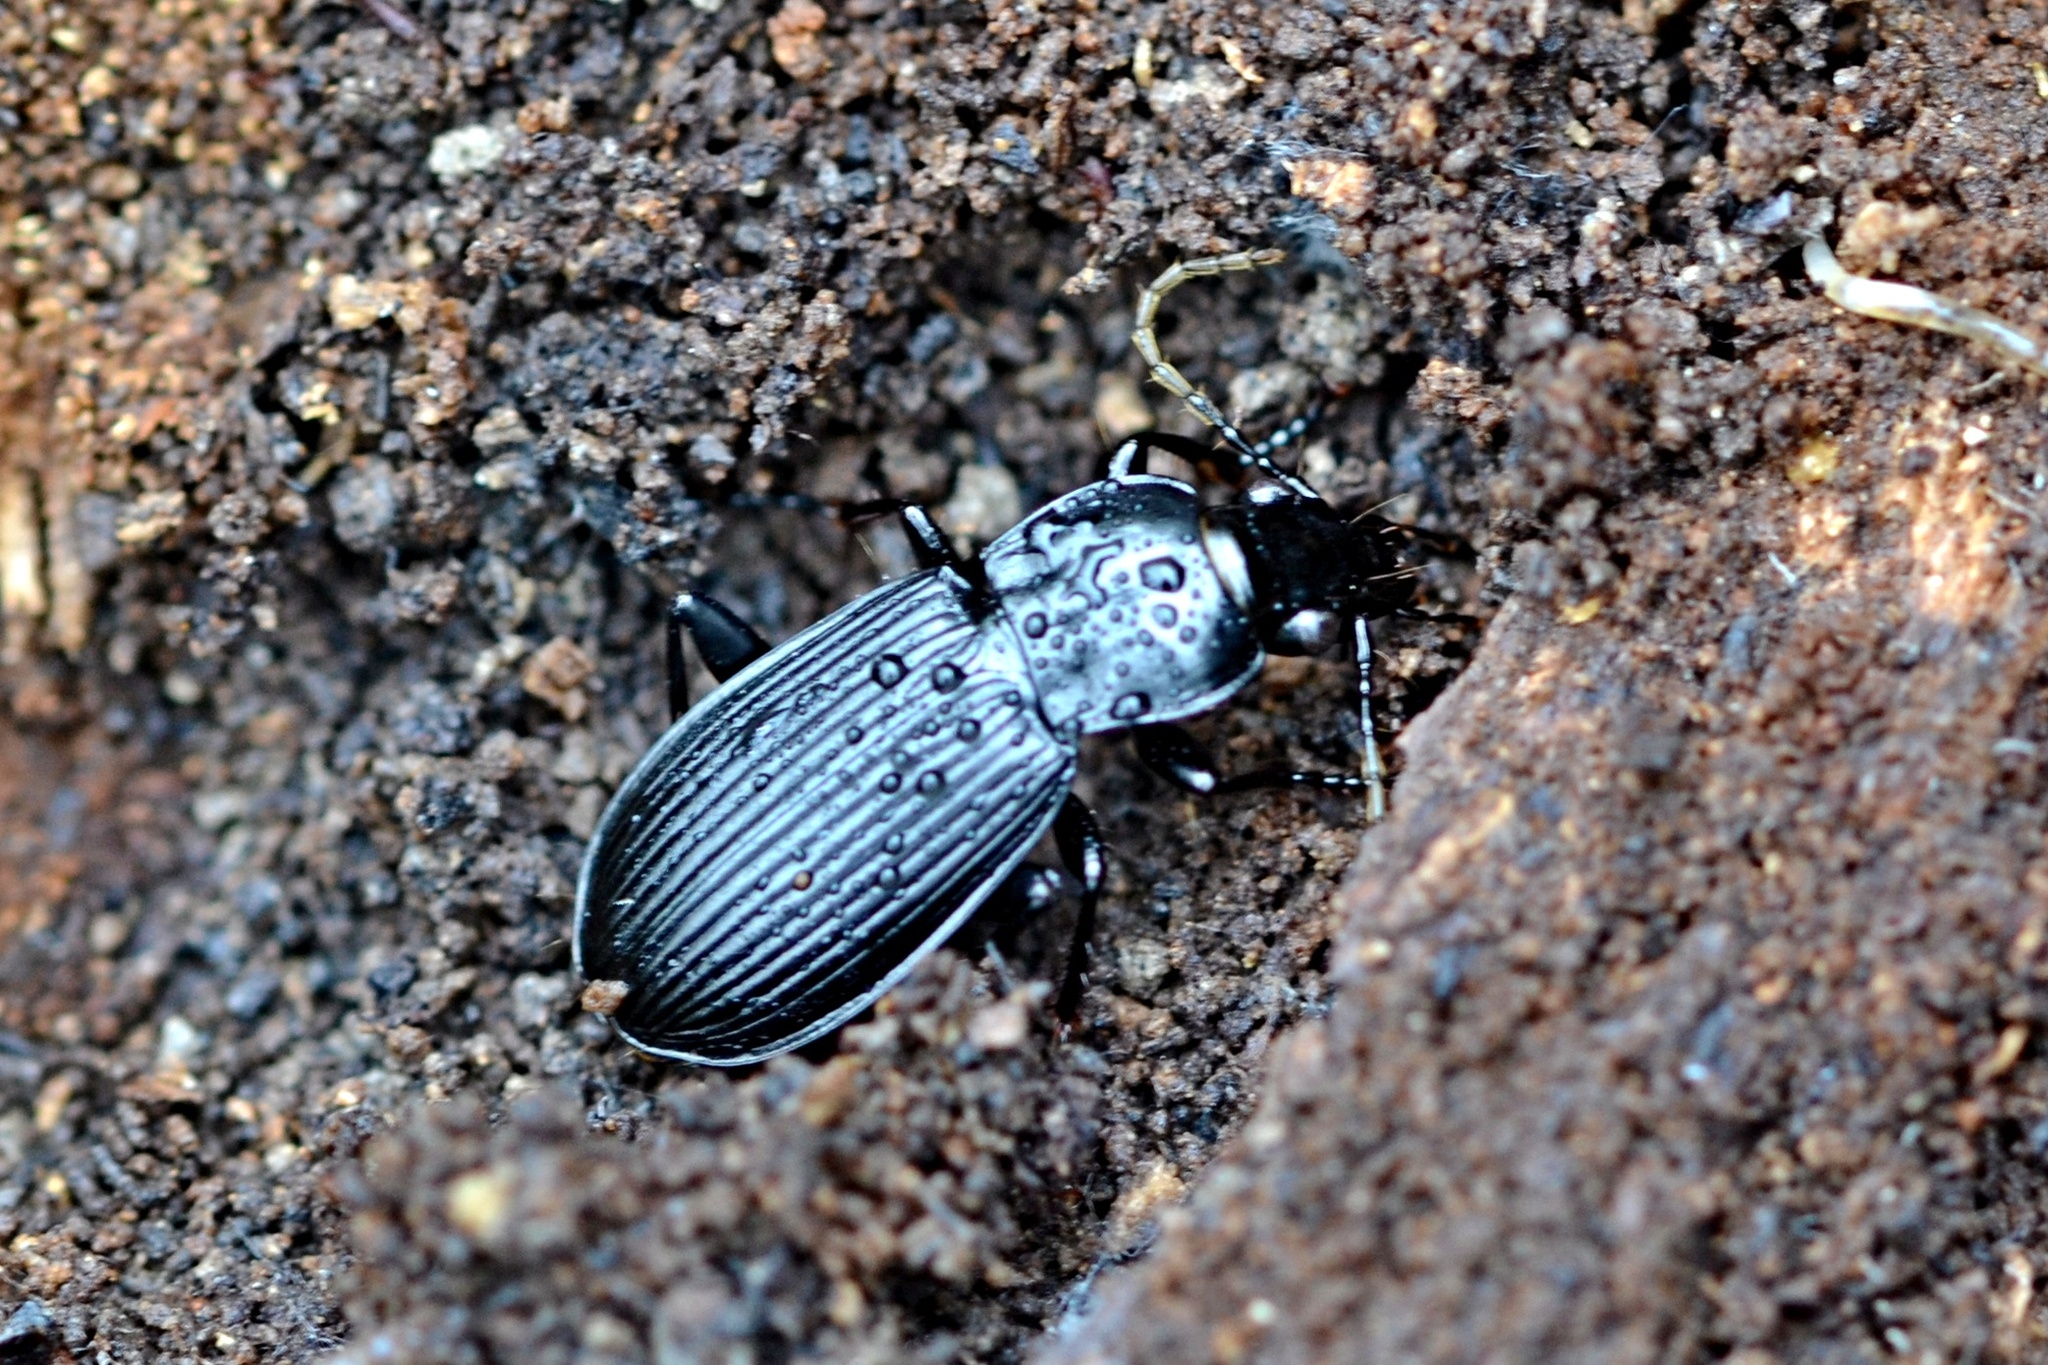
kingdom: Animalia
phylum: Arthropoda
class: Insecta
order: Coleoptera
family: Carabidae
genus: Pterostichus
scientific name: Pterostichus niger
